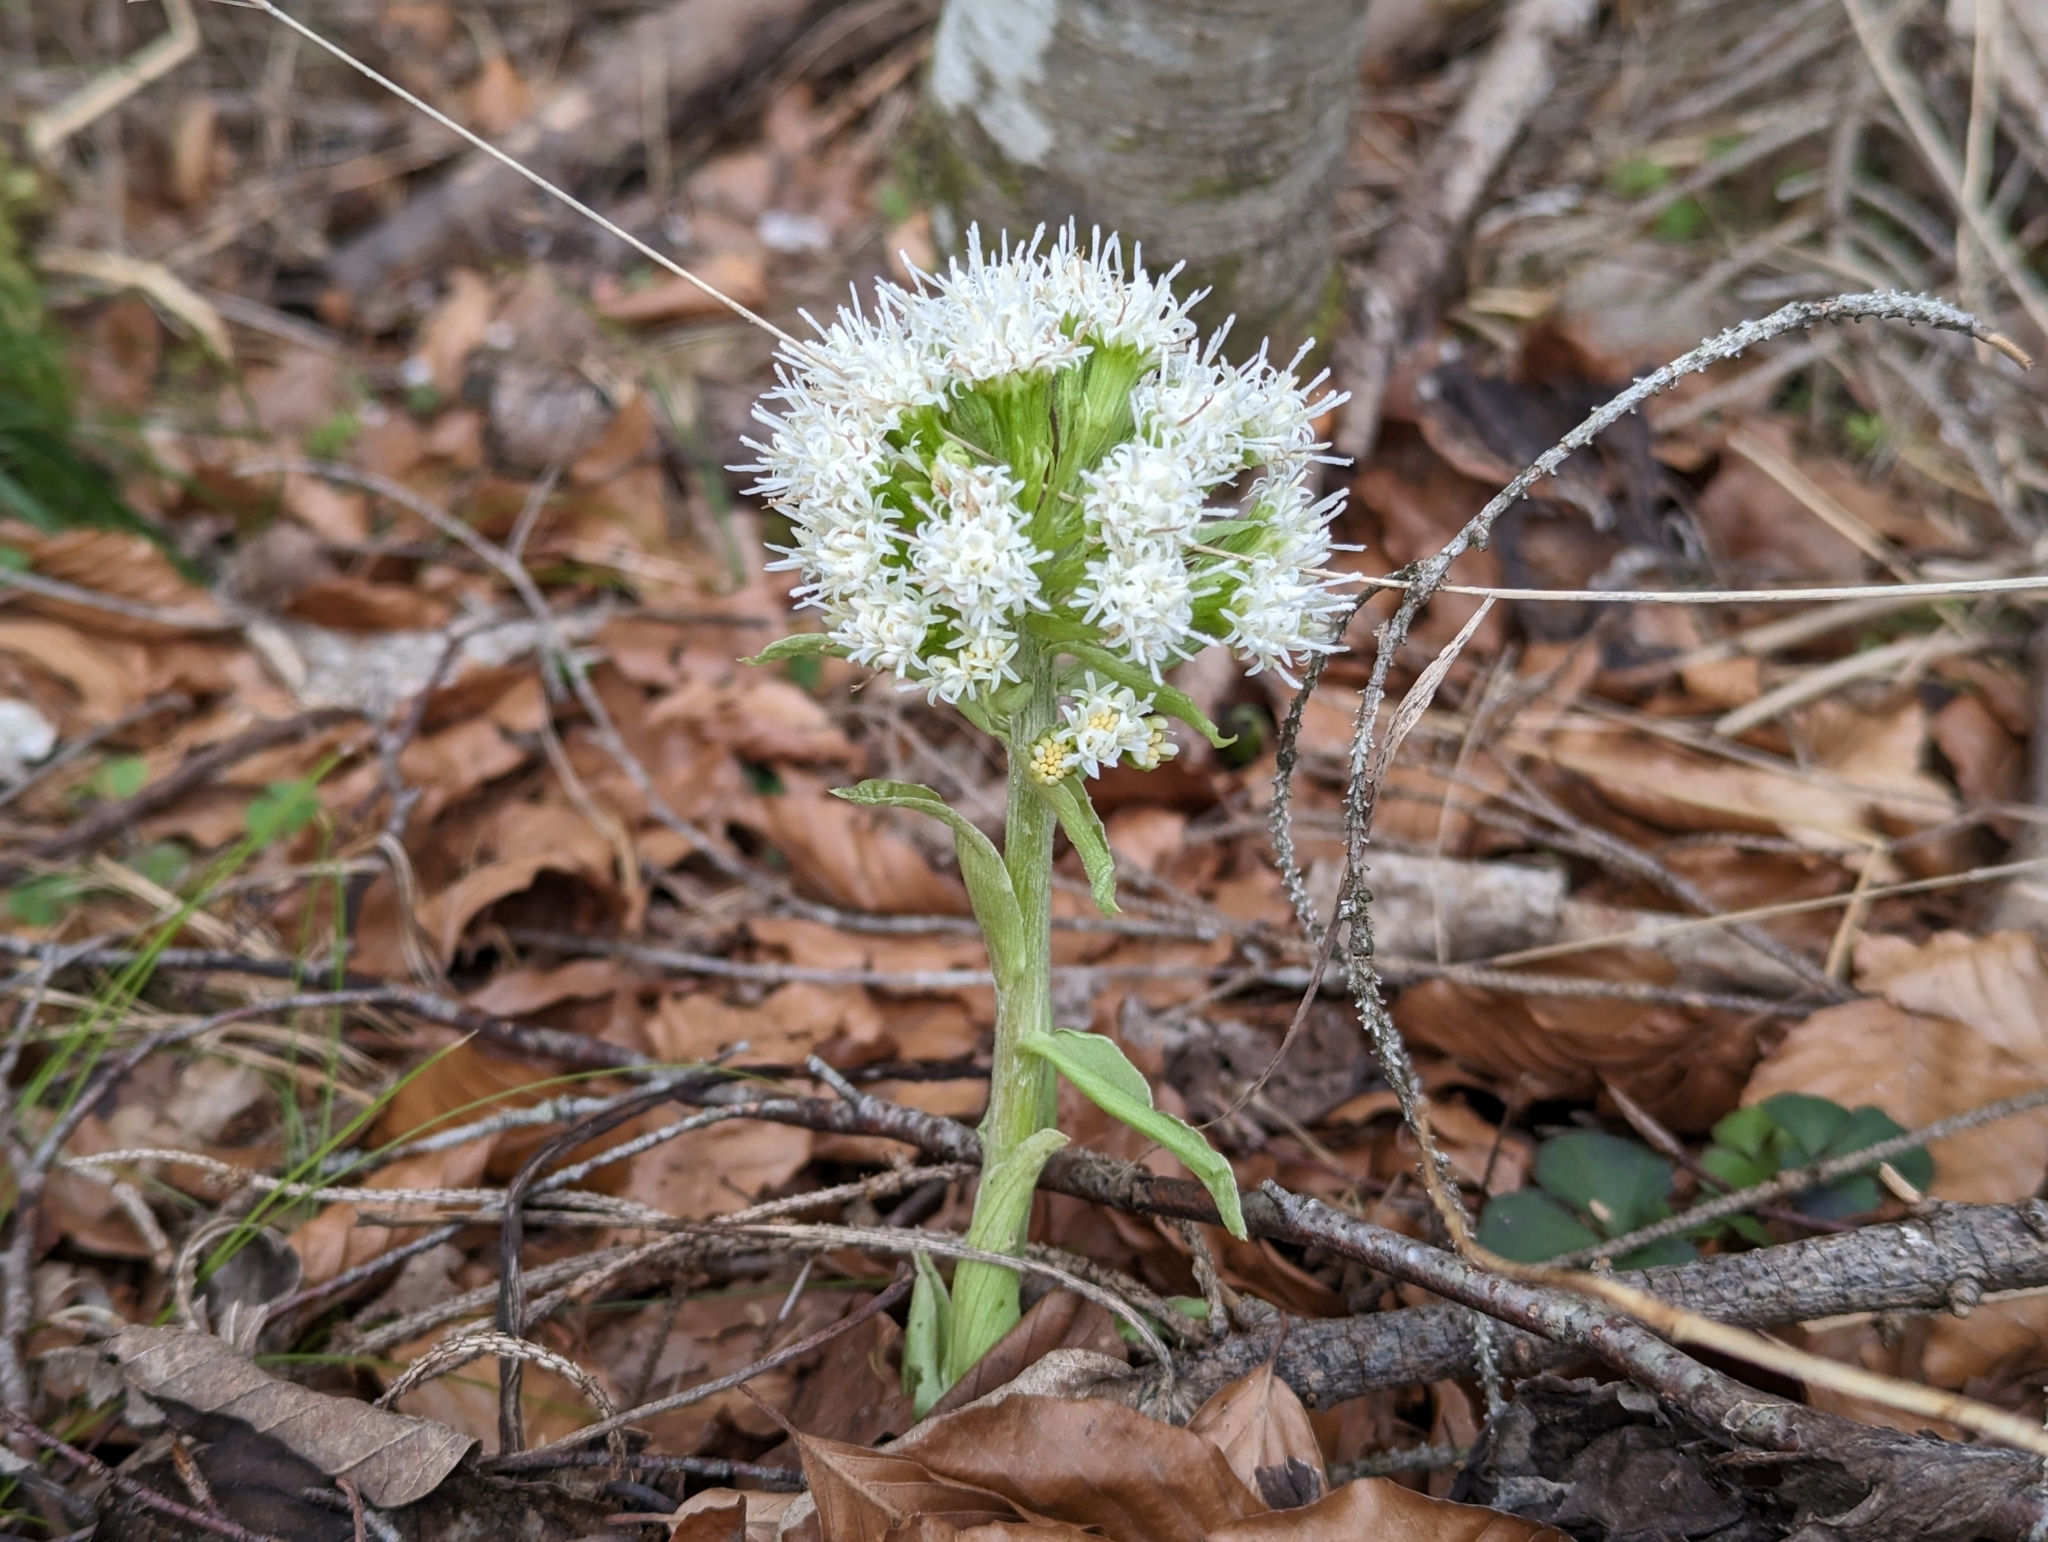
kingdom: Plantae
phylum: Tracheophyta
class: Magnoliopsida
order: Asterales
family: Asteraceae
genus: Petasites
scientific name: Petasites albus
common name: White butterbur
